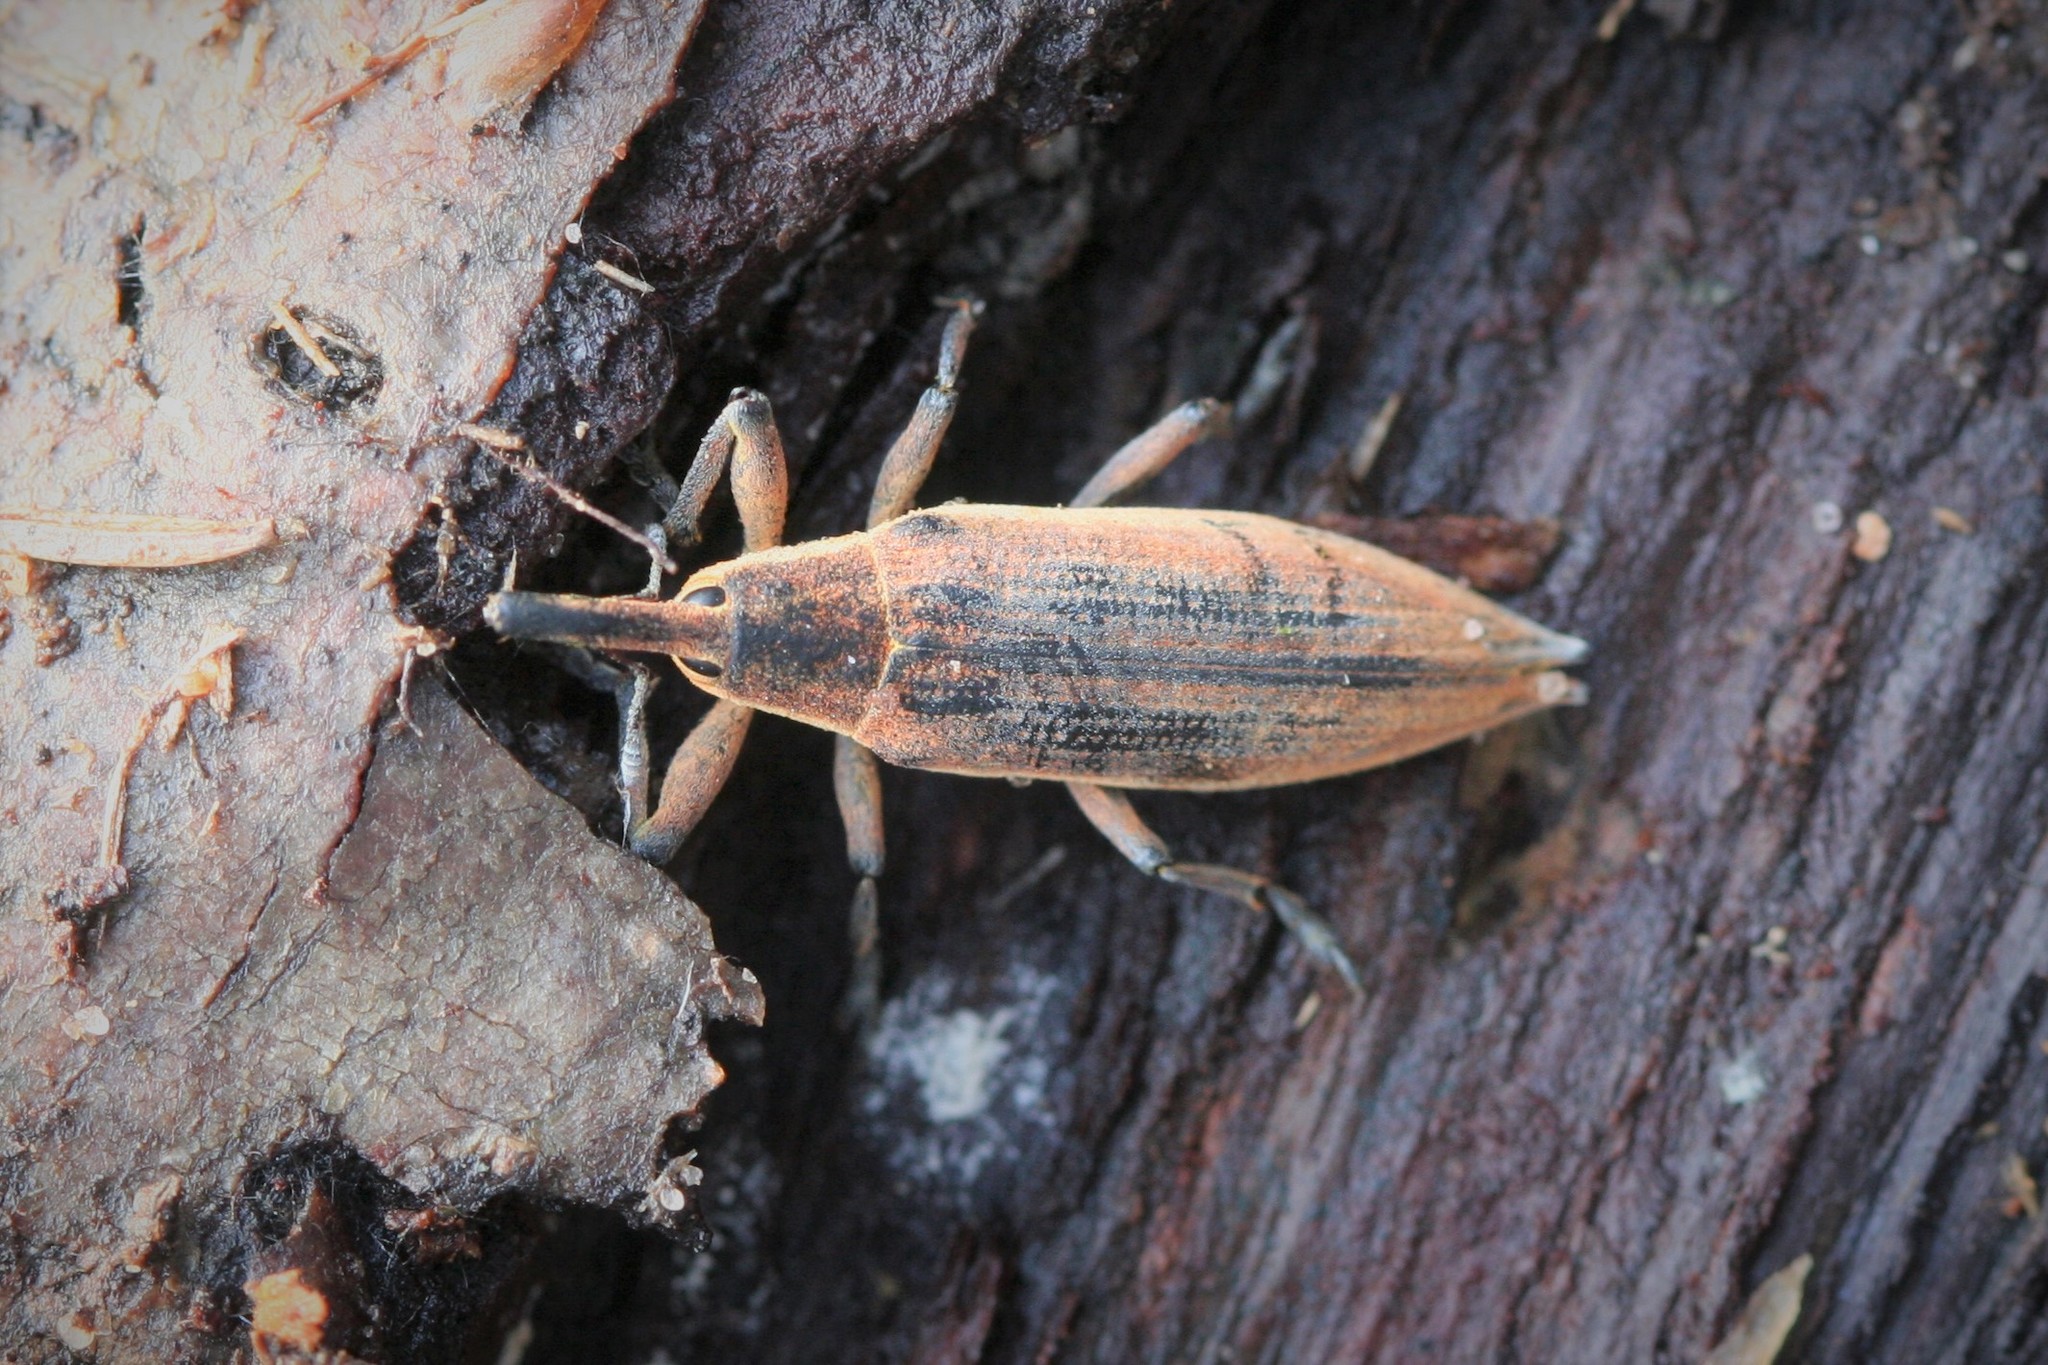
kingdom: Animalia
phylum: Arthropoda
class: Insecta
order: Coleoptera
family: Curculionidae
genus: Lixus
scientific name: Lixus iridis
